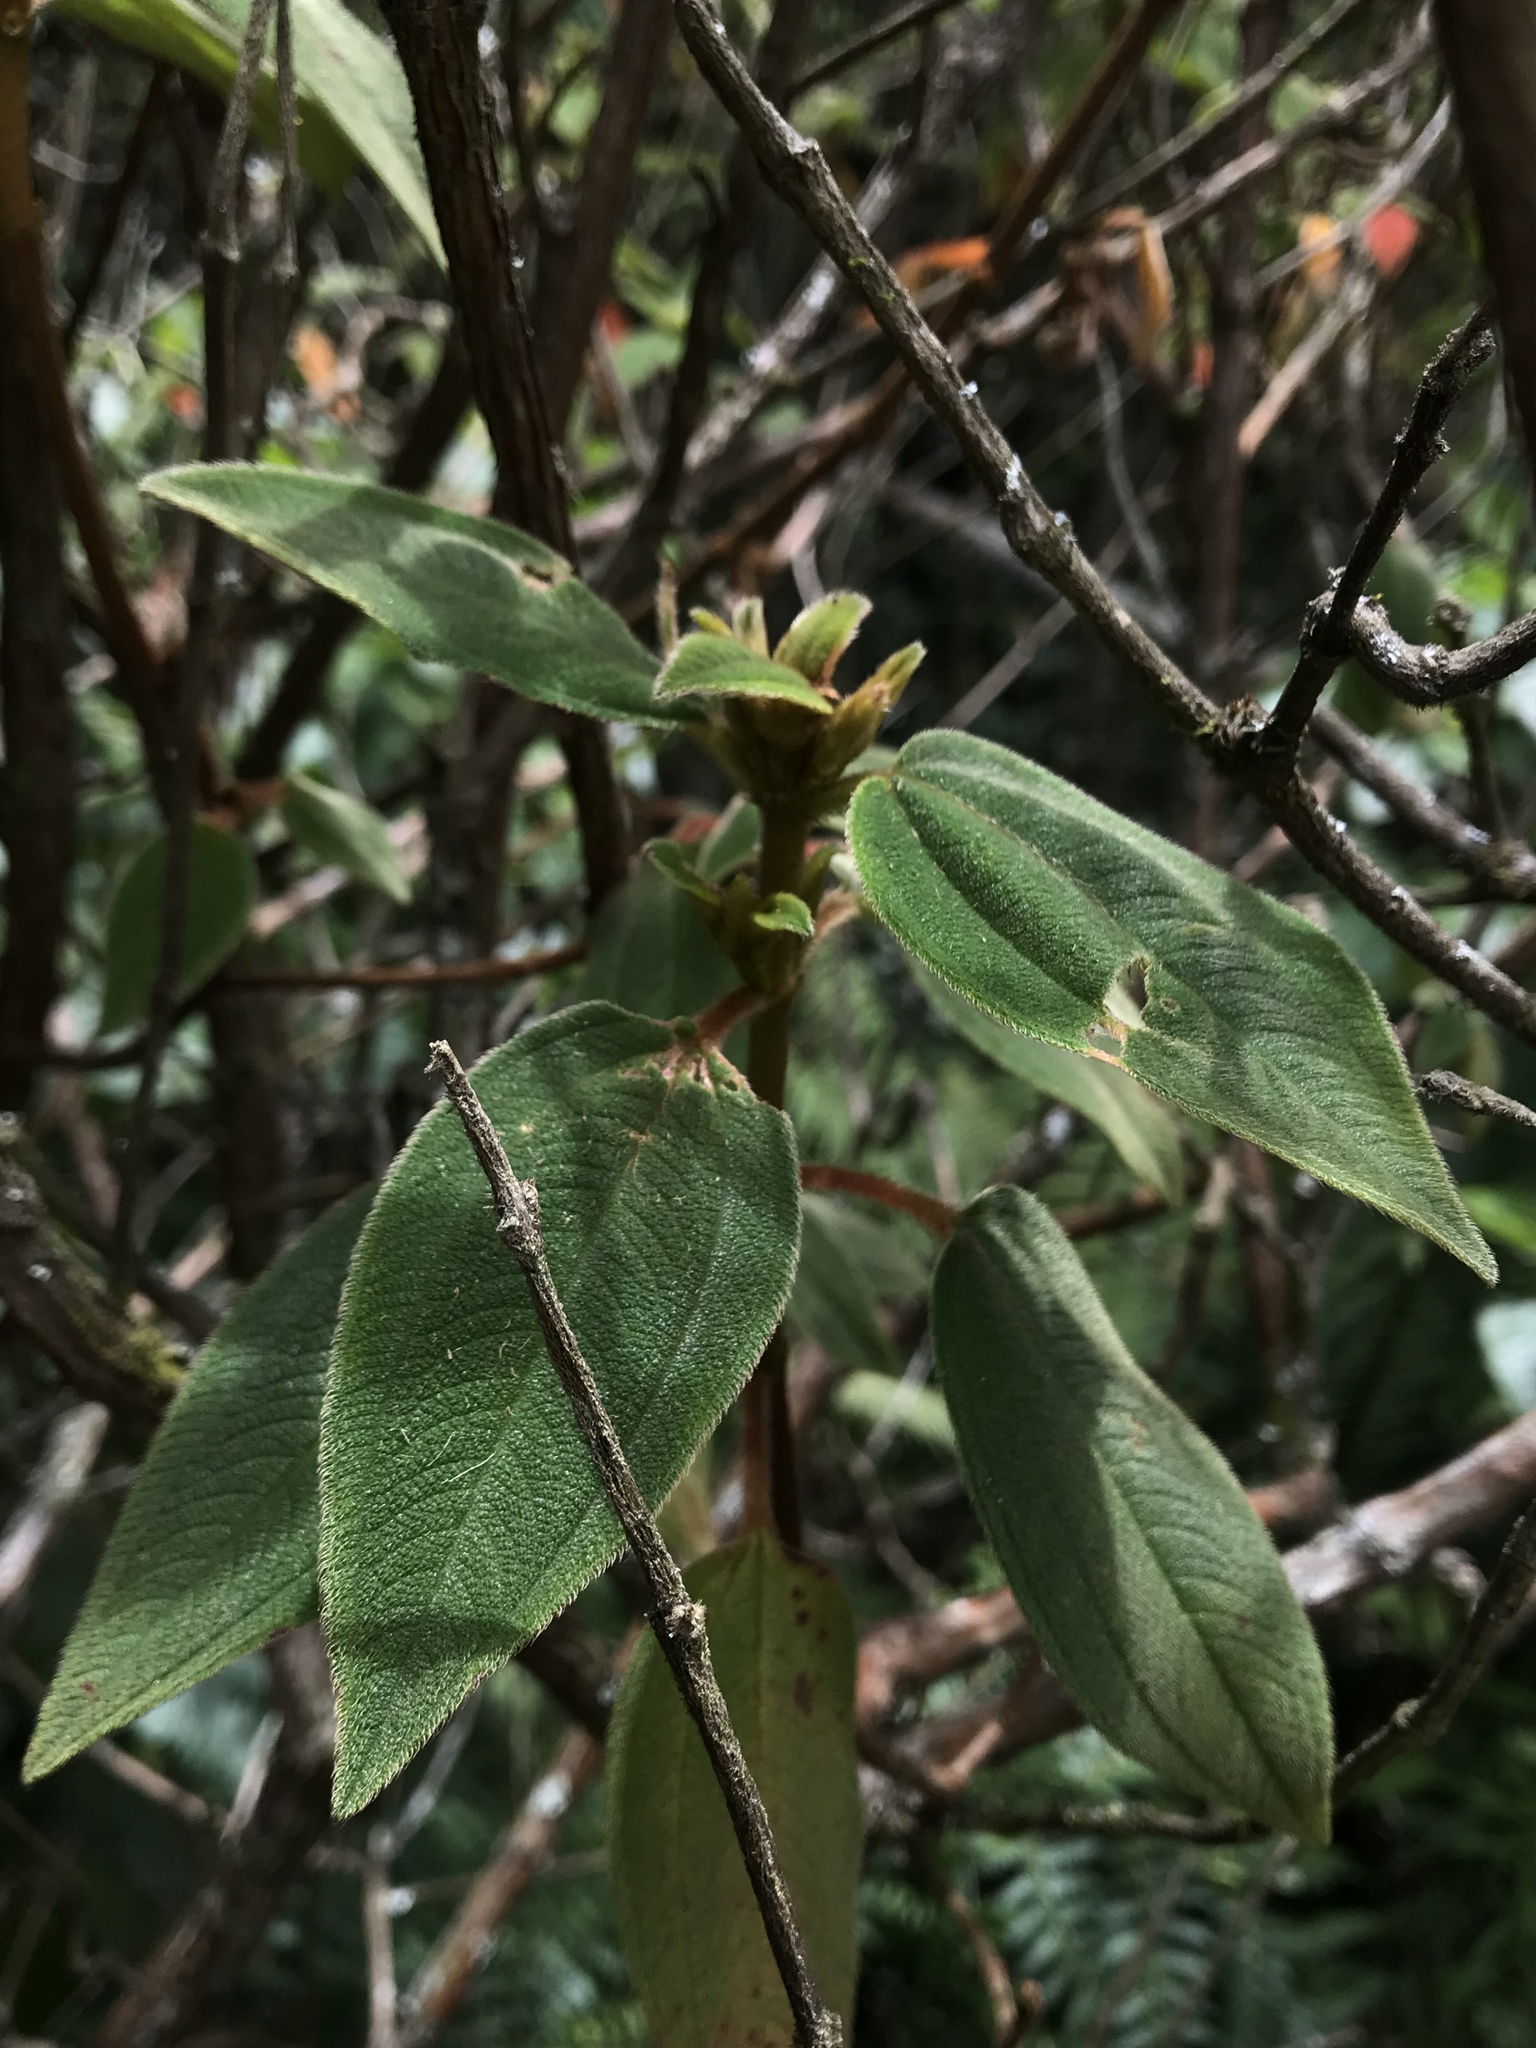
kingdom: Plantae
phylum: Tracheophyta
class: Magnoliopsida
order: Myrtales
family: Melastomataceae
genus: Chaetogastra
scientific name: Chaetogastra mollis
